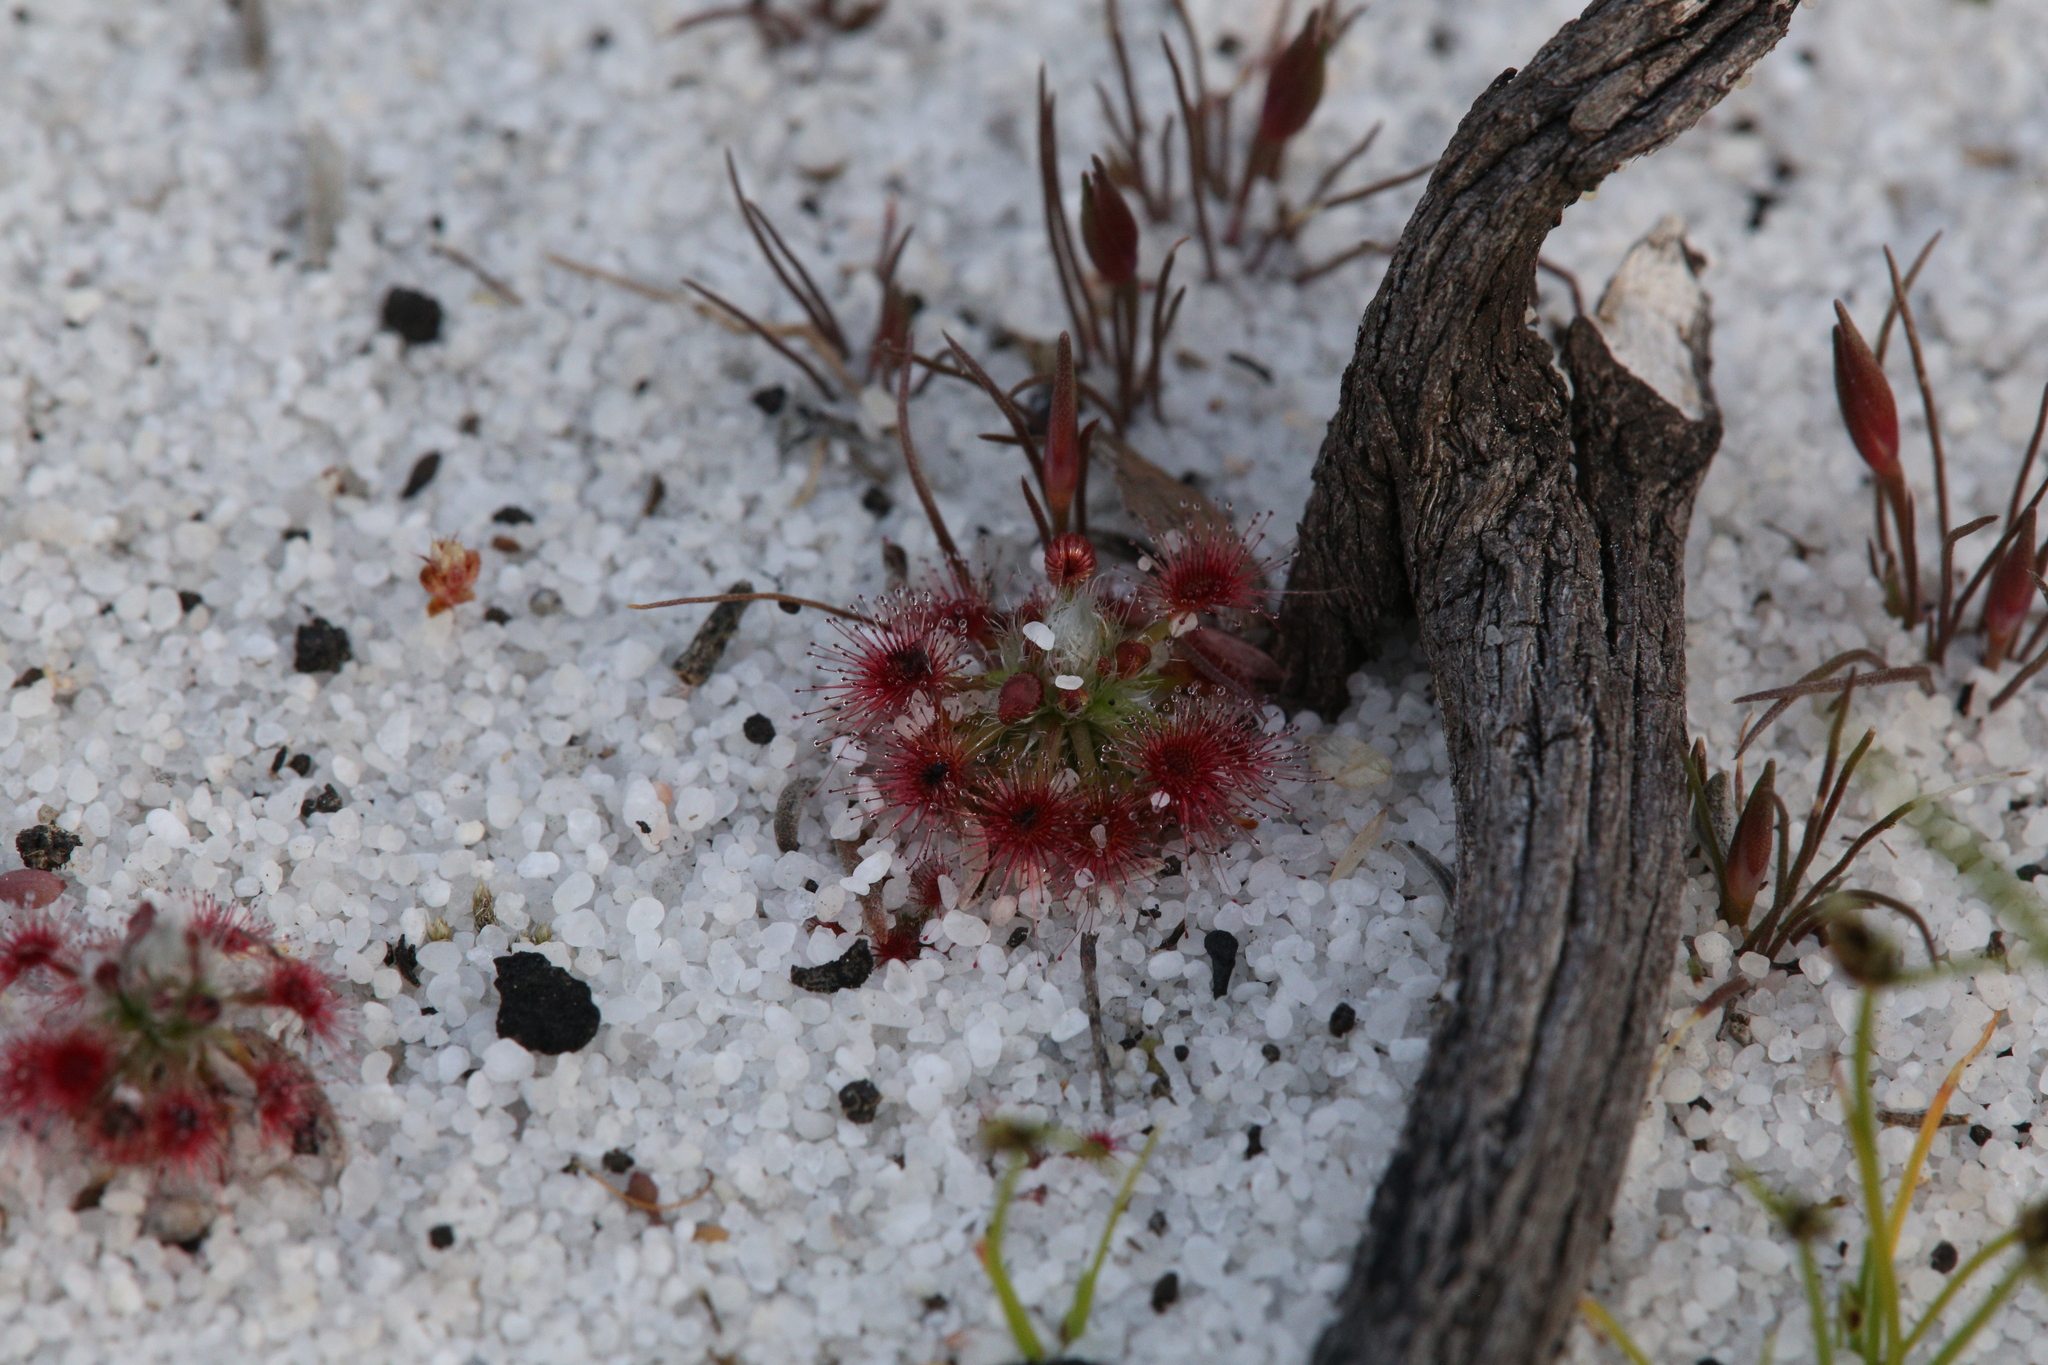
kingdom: Plantae
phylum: Tracheophyta
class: Magnoliopsida
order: Caryophyllales
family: Droseraceae
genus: Drosera
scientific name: Drosera paleacea
